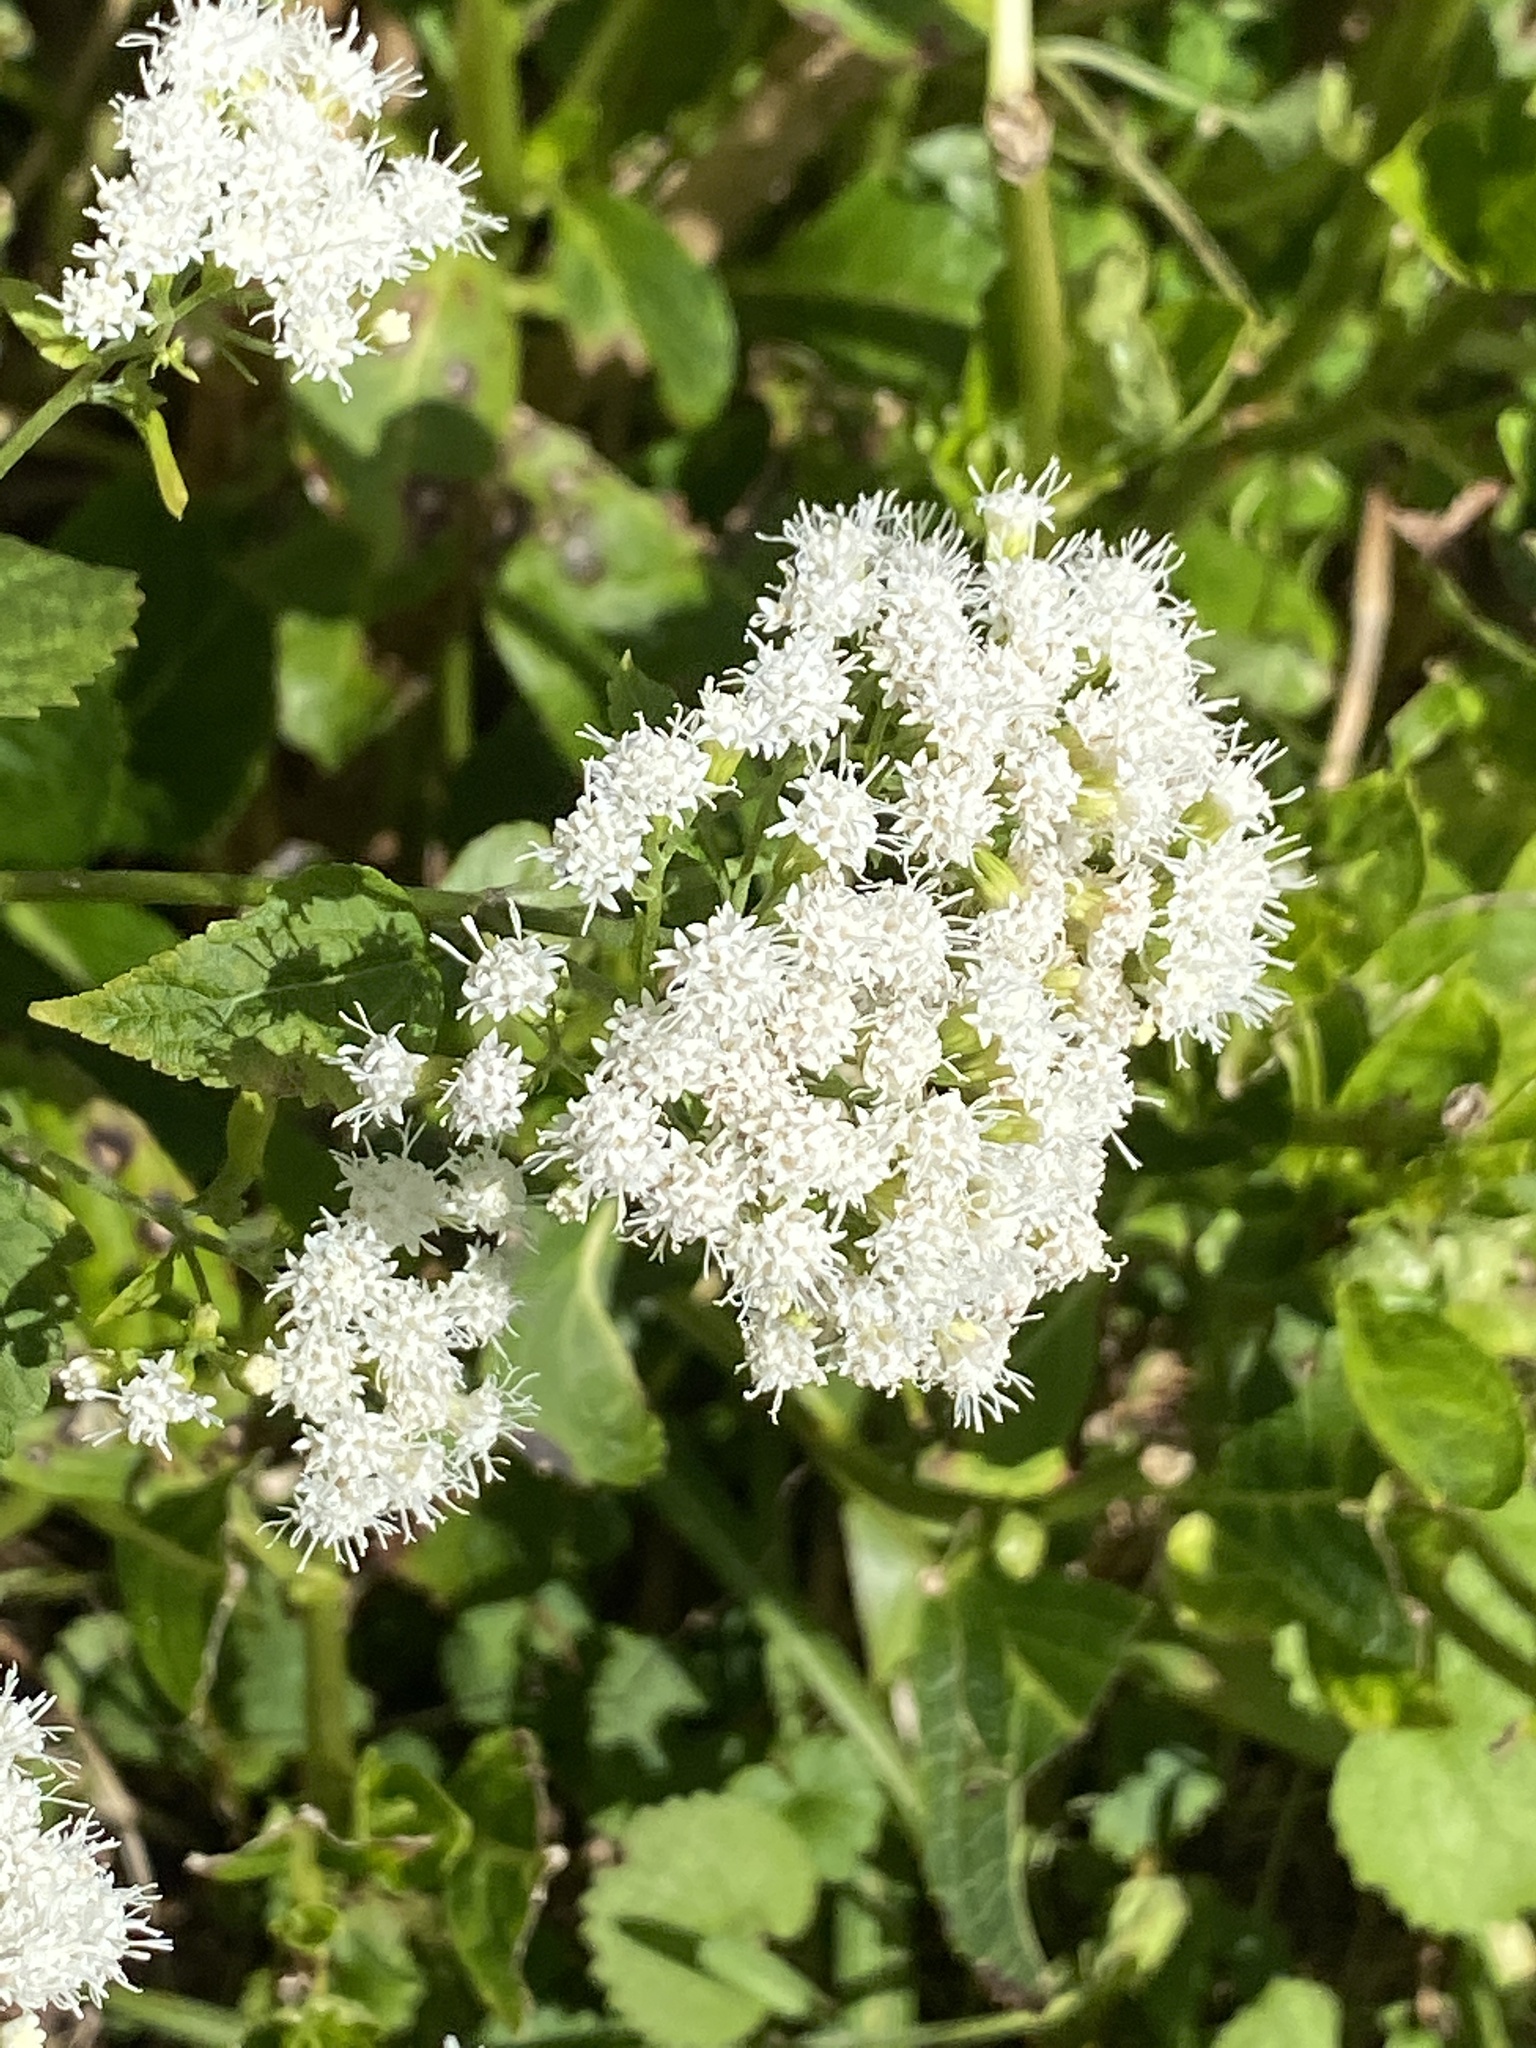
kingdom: Plantae
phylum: Tracheophyta
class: Magnoliopsida
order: Asterales
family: Asteraceae
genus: Ageratina
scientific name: Ageratina altissima
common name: White snakeroot
